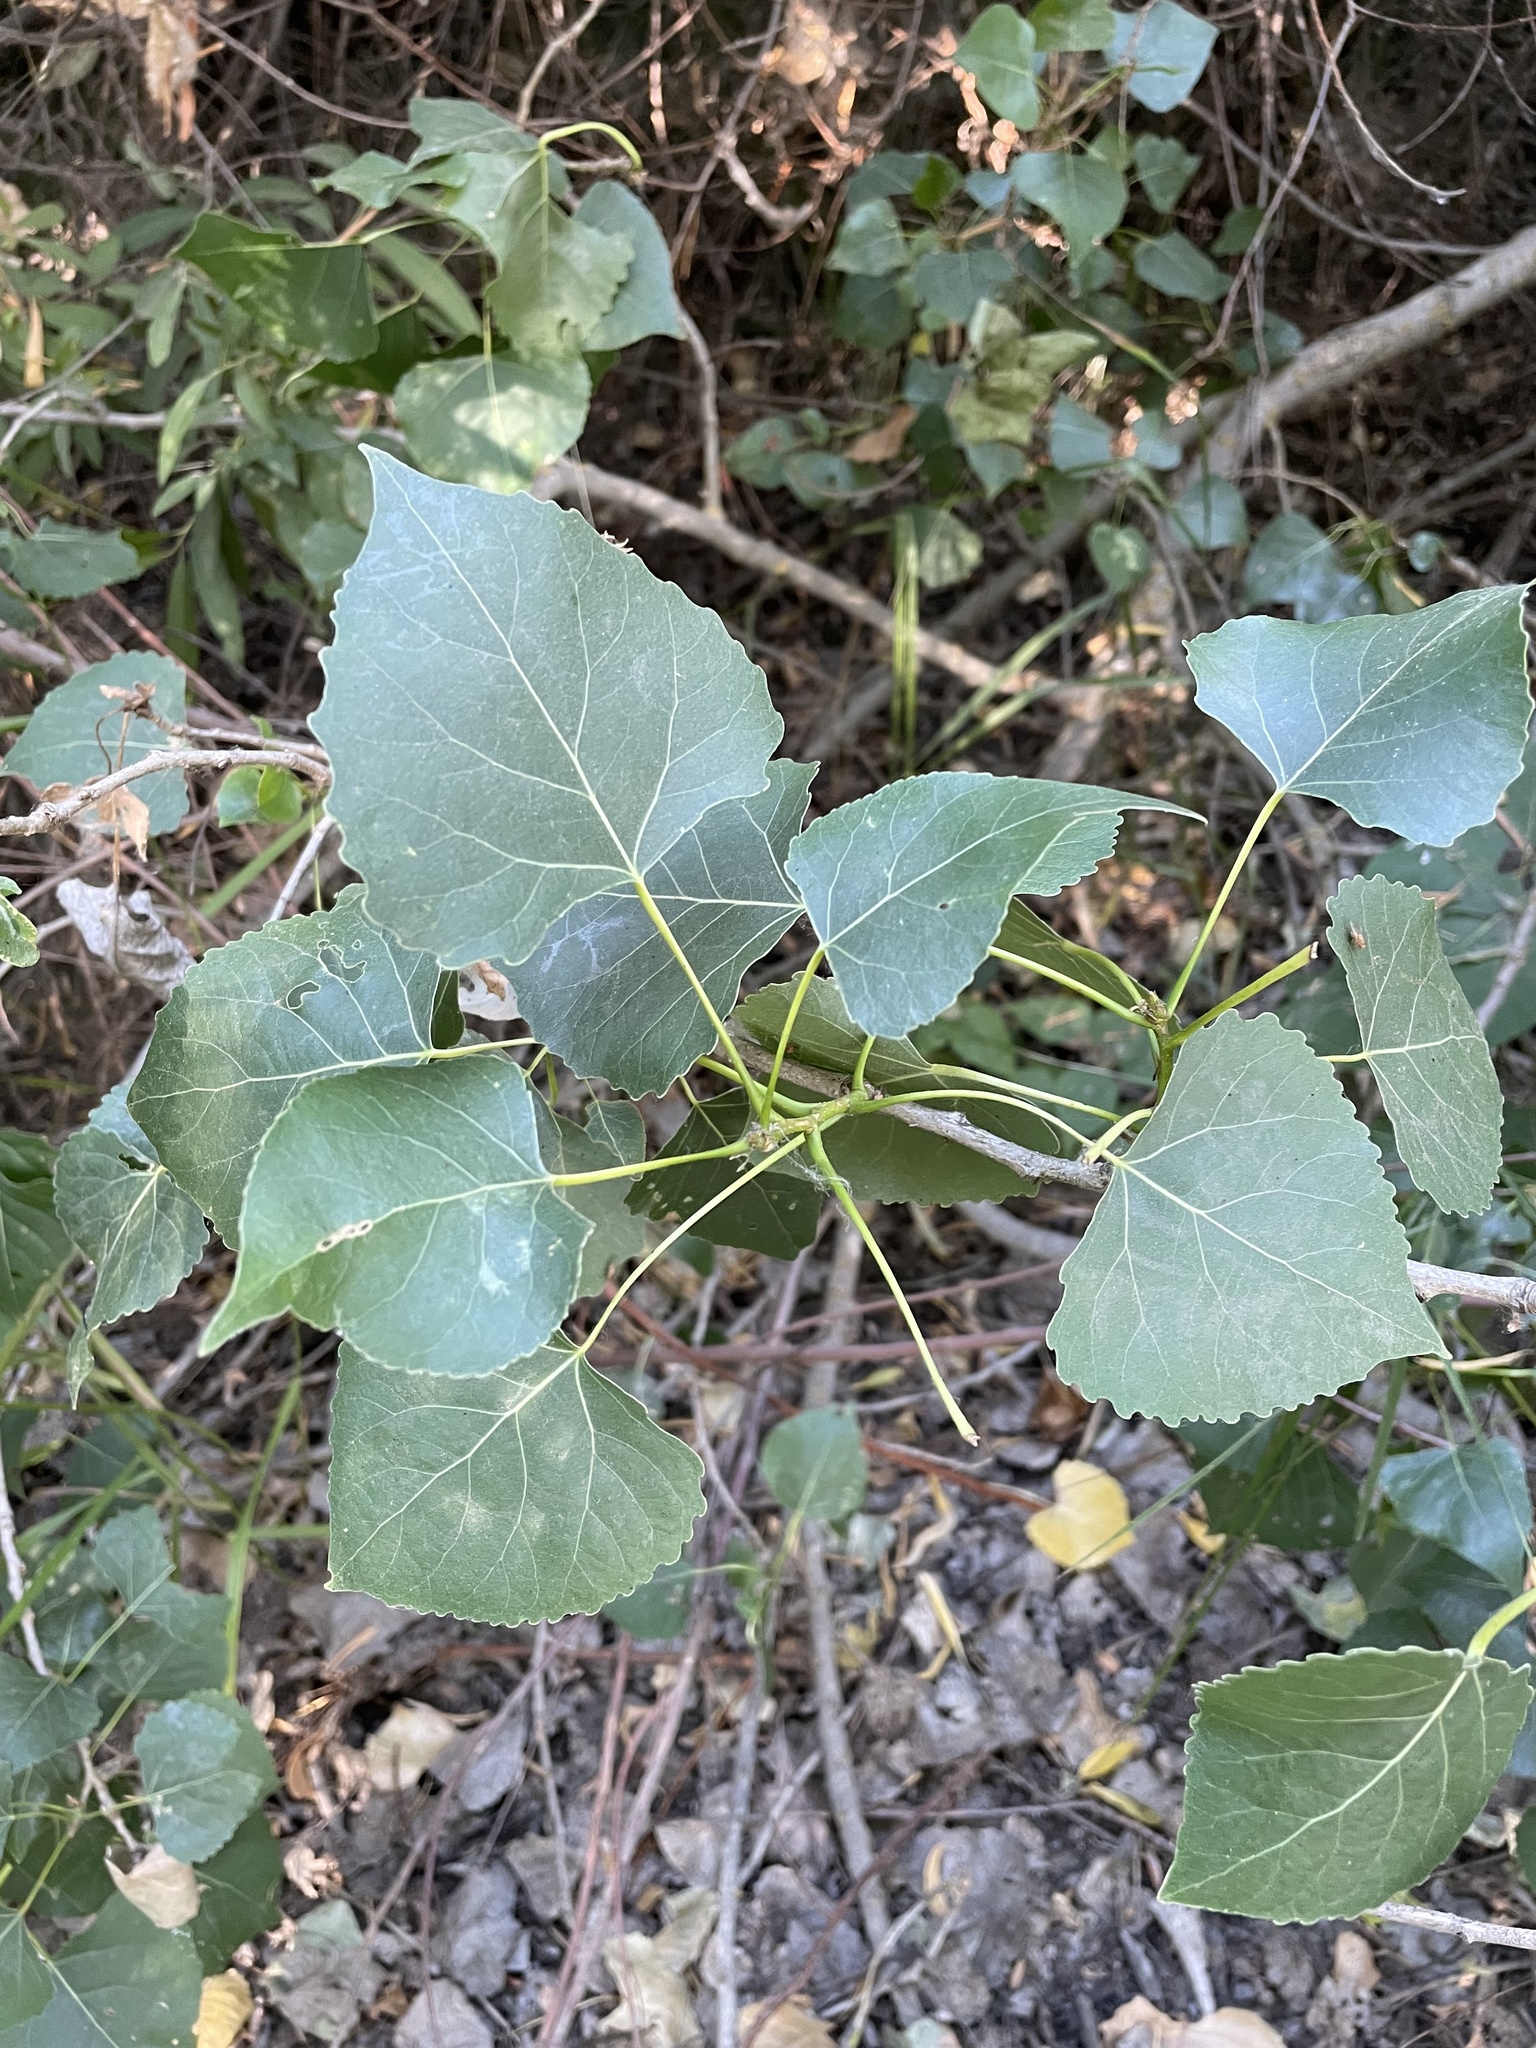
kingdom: Plantae
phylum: Tracheophyta
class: Magnoliopsida
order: Malpighiales
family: Salicaceae
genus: Populus
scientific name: Populus fremontii
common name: Fremont's cottonwood
